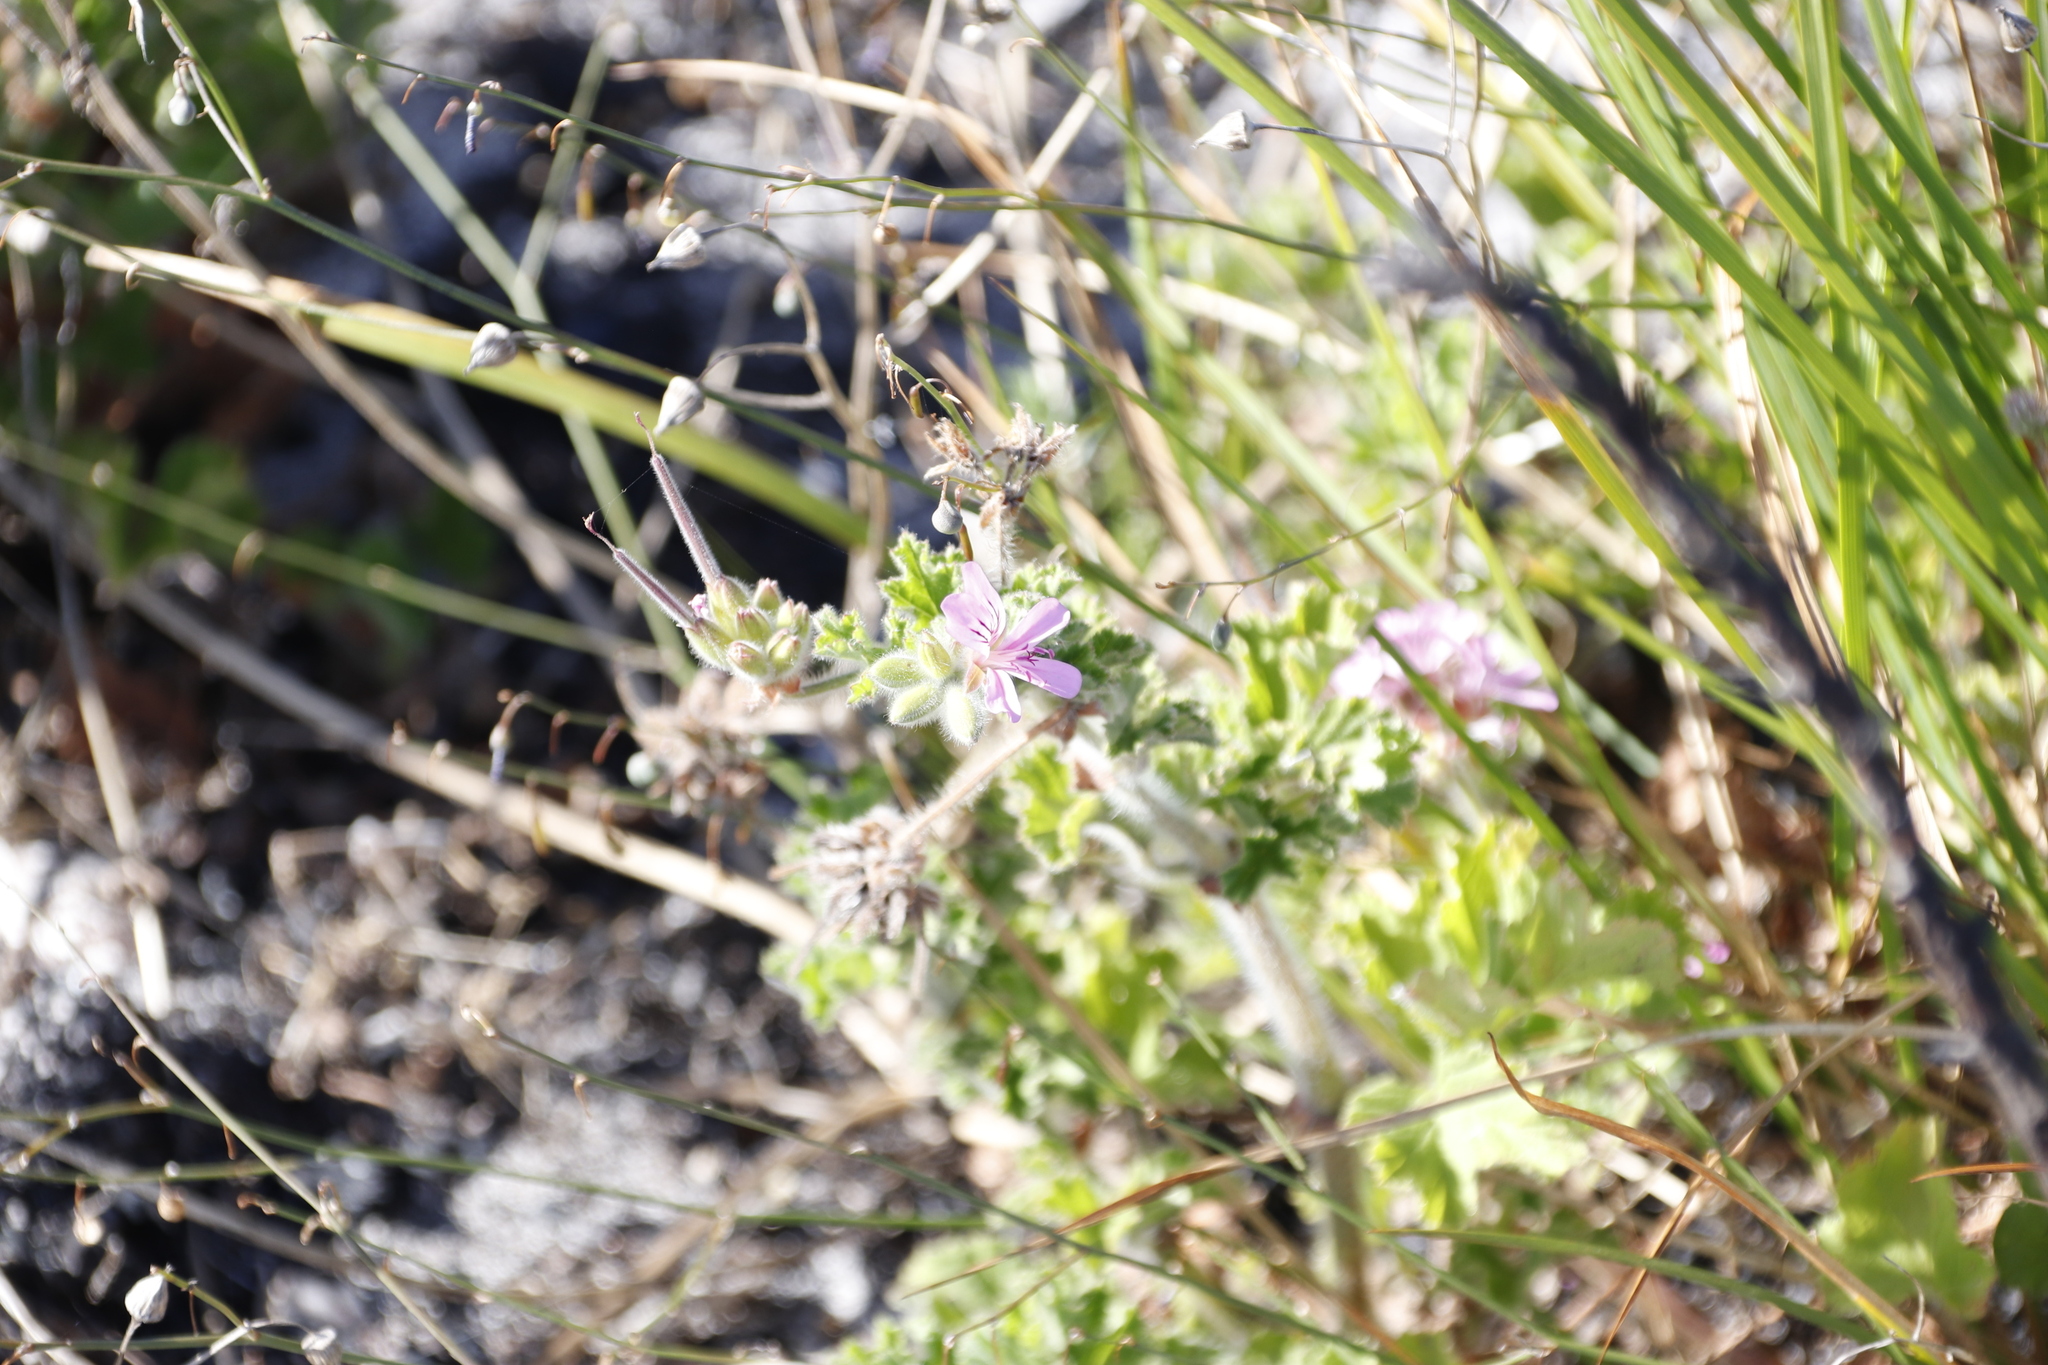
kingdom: Plantae
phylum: Tracheophyta
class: Magnoliopsida
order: Geraniales
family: Geraniaceae
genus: Pelargonium
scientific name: Pelargonium capitatum
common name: Rose scented geranium
